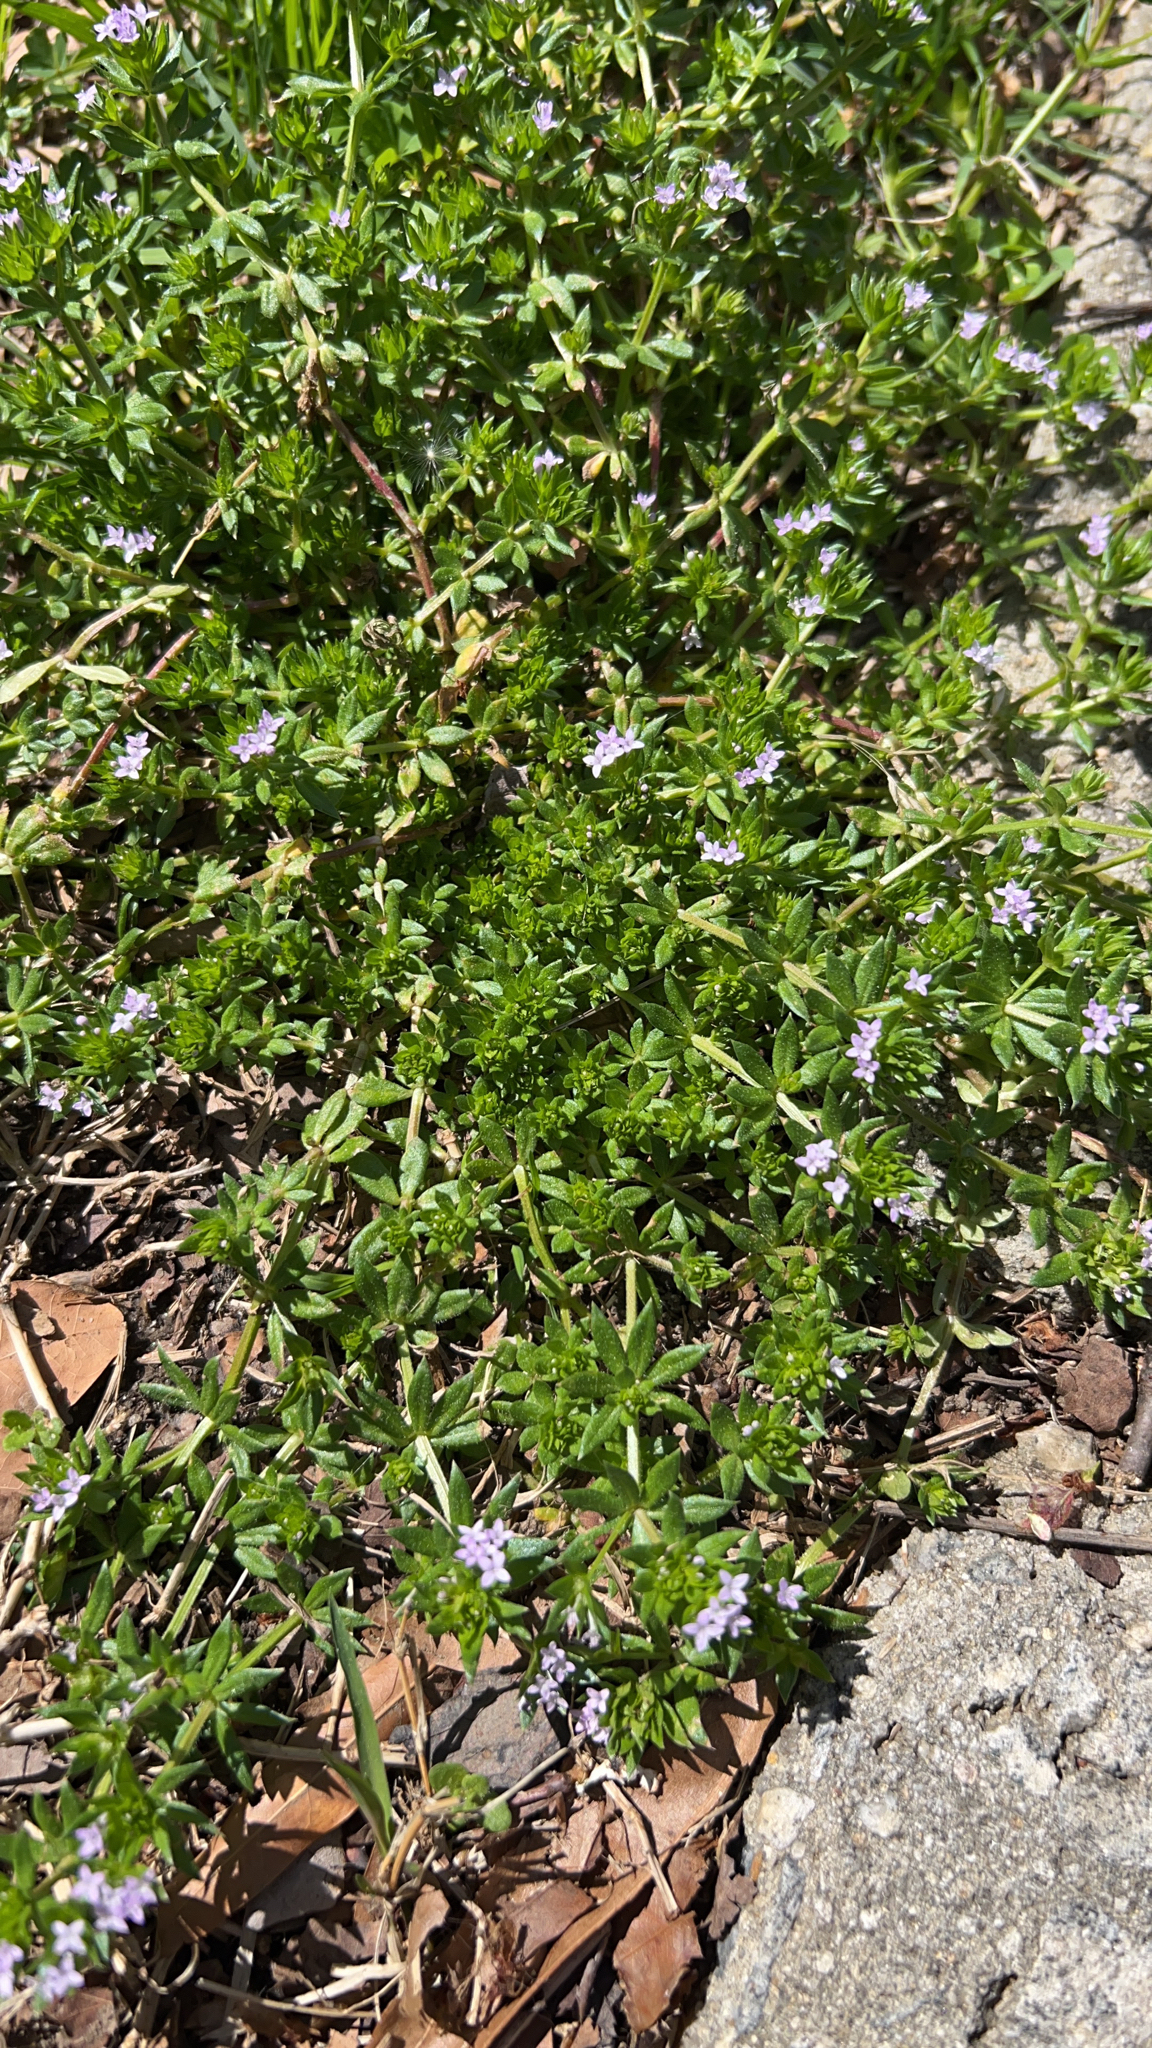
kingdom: Plantae
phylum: Tracheophyta
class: Magnoliopsida
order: Gentianales
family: Rubiaceae
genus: Sherardia
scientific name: Sherardia arvensis
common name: Field madder
